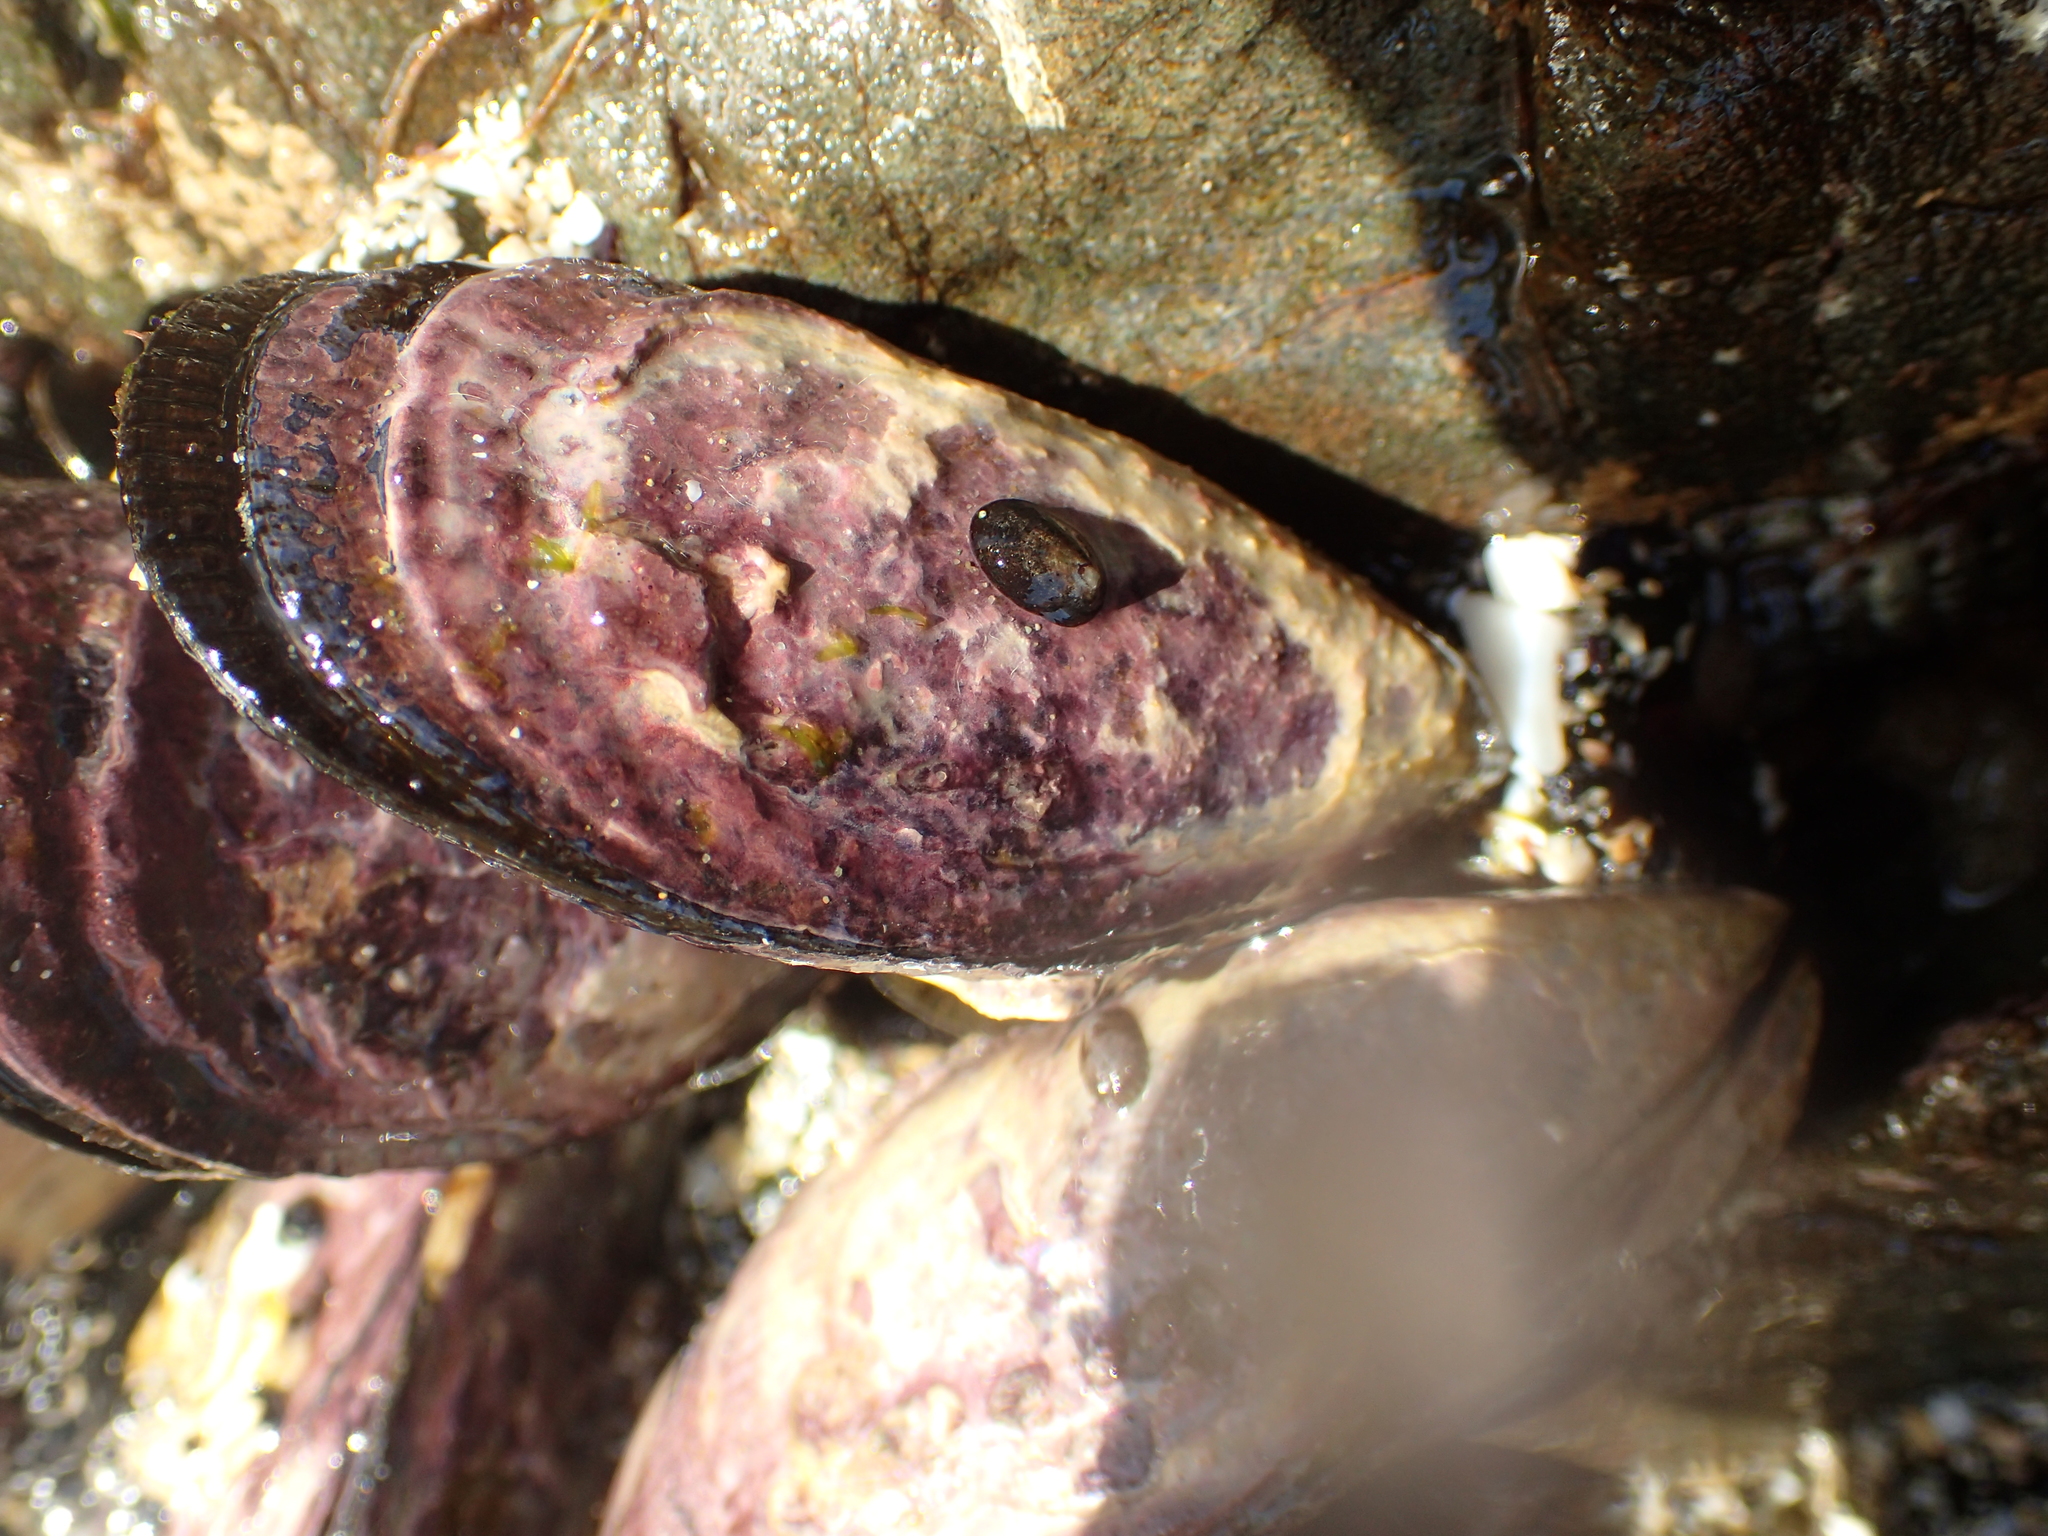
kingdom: Animalia
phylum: Mollusca
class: Bivalvia
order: Mytilida
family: Mytilidae
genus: Aulacomya
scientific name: Aulacomya maoriana
